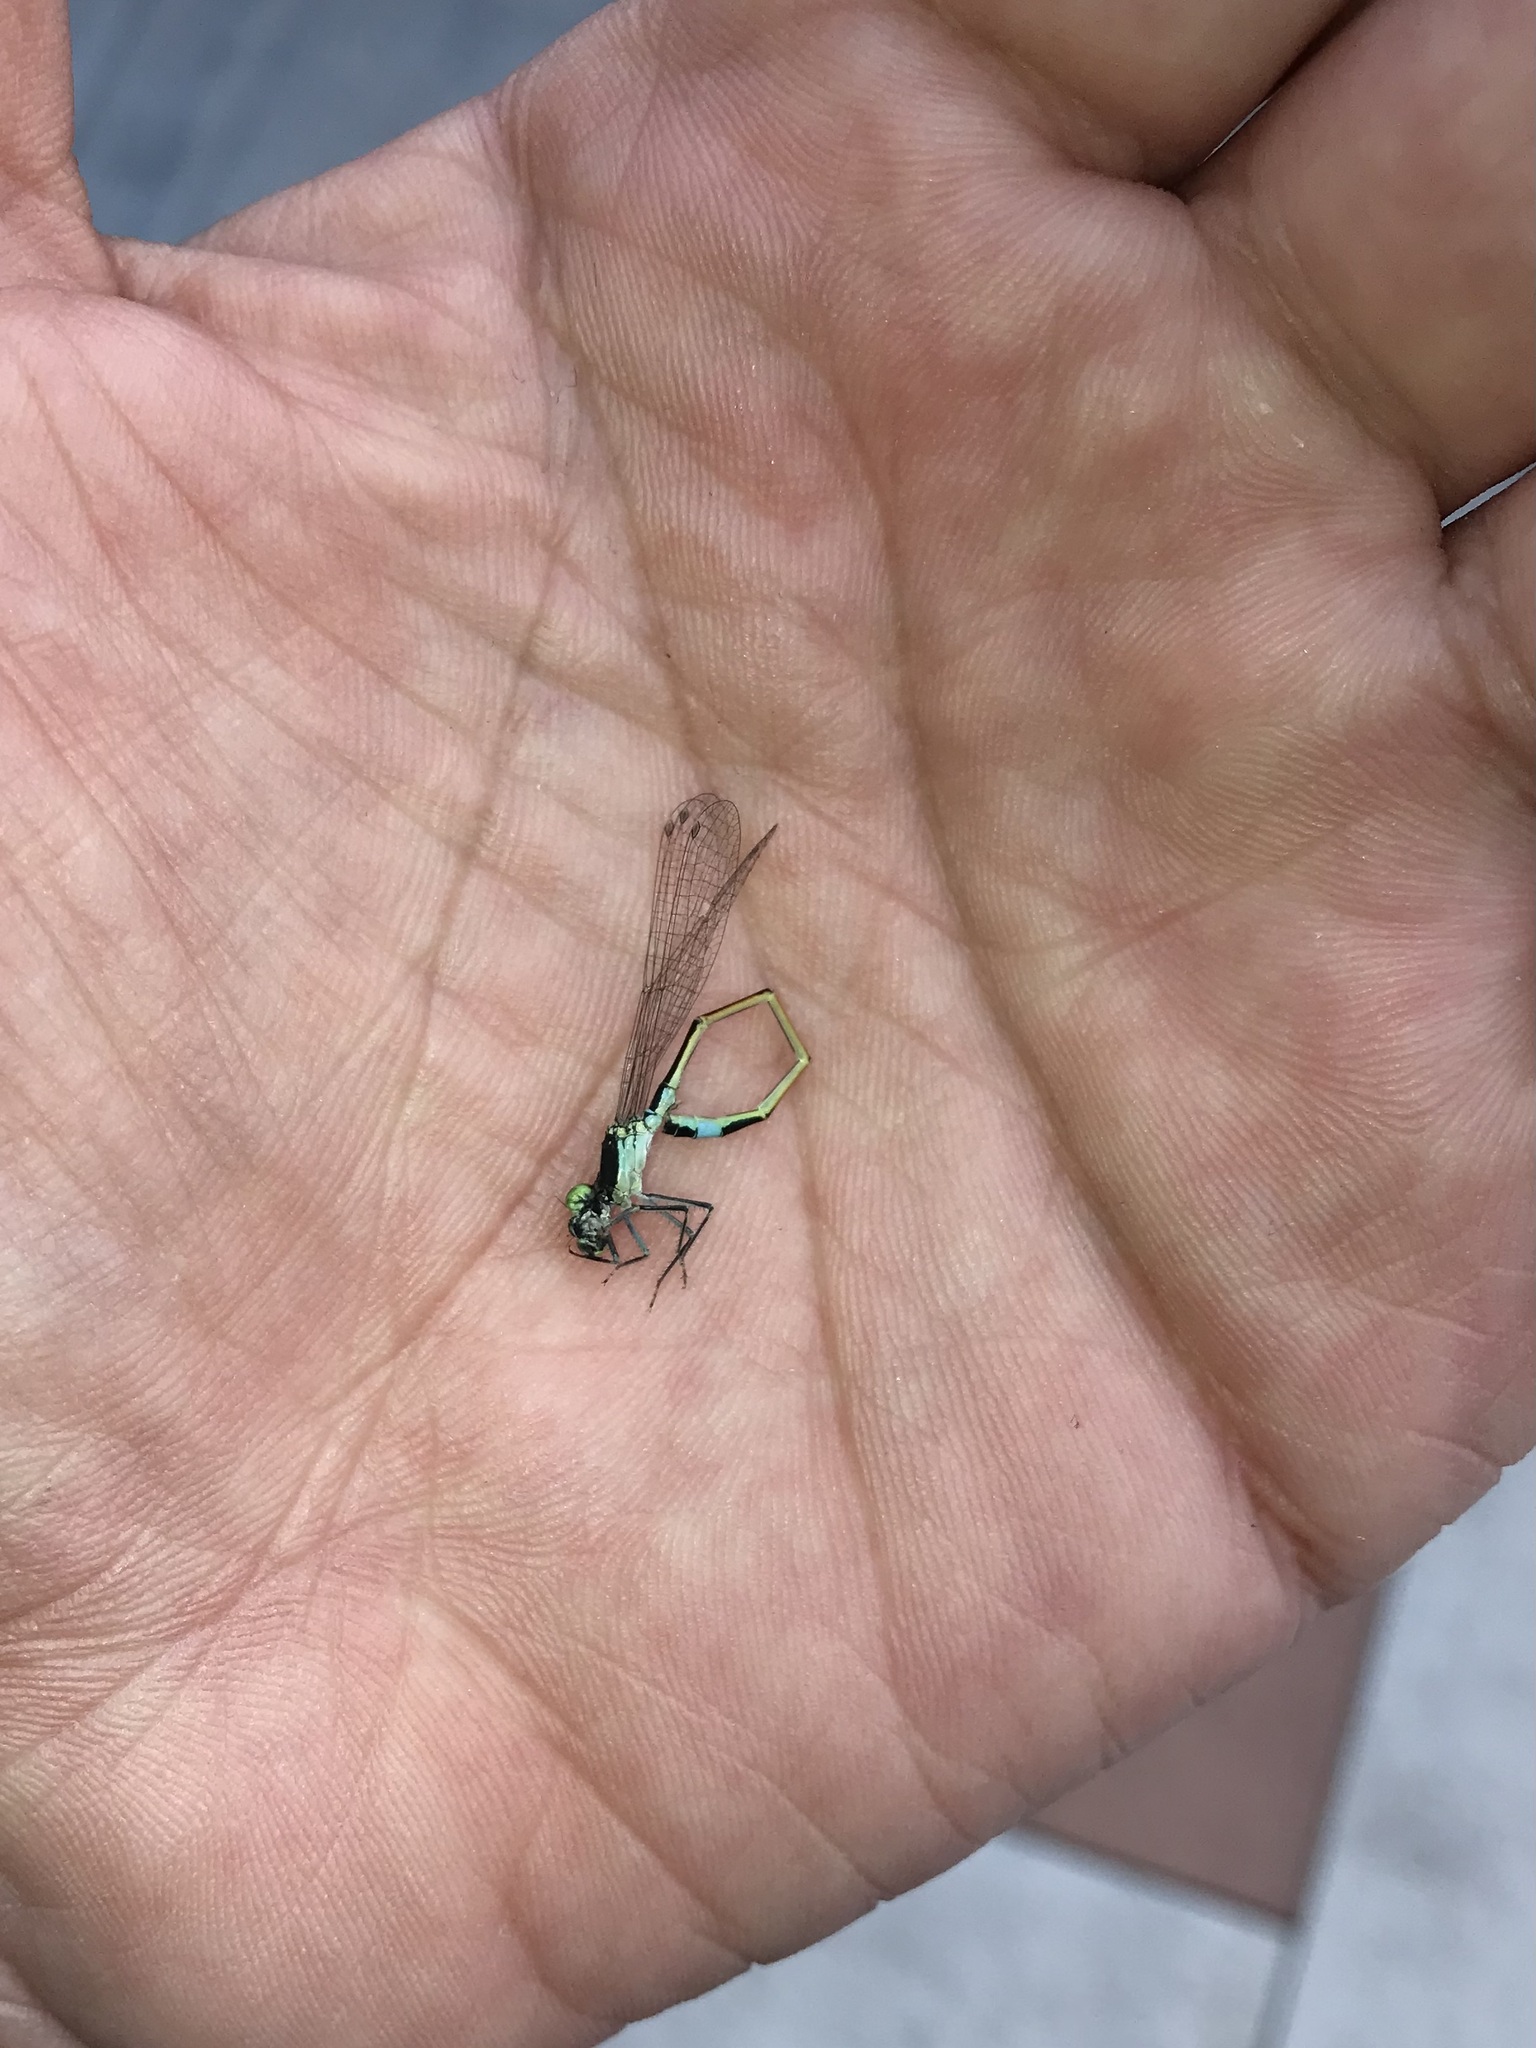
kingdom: Animalia
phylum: Arthropoda
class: Insecta
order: Odonata
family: Coenagrionidae
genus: Ischnura
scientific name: Ischnura evansi
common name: Desert bluetail
